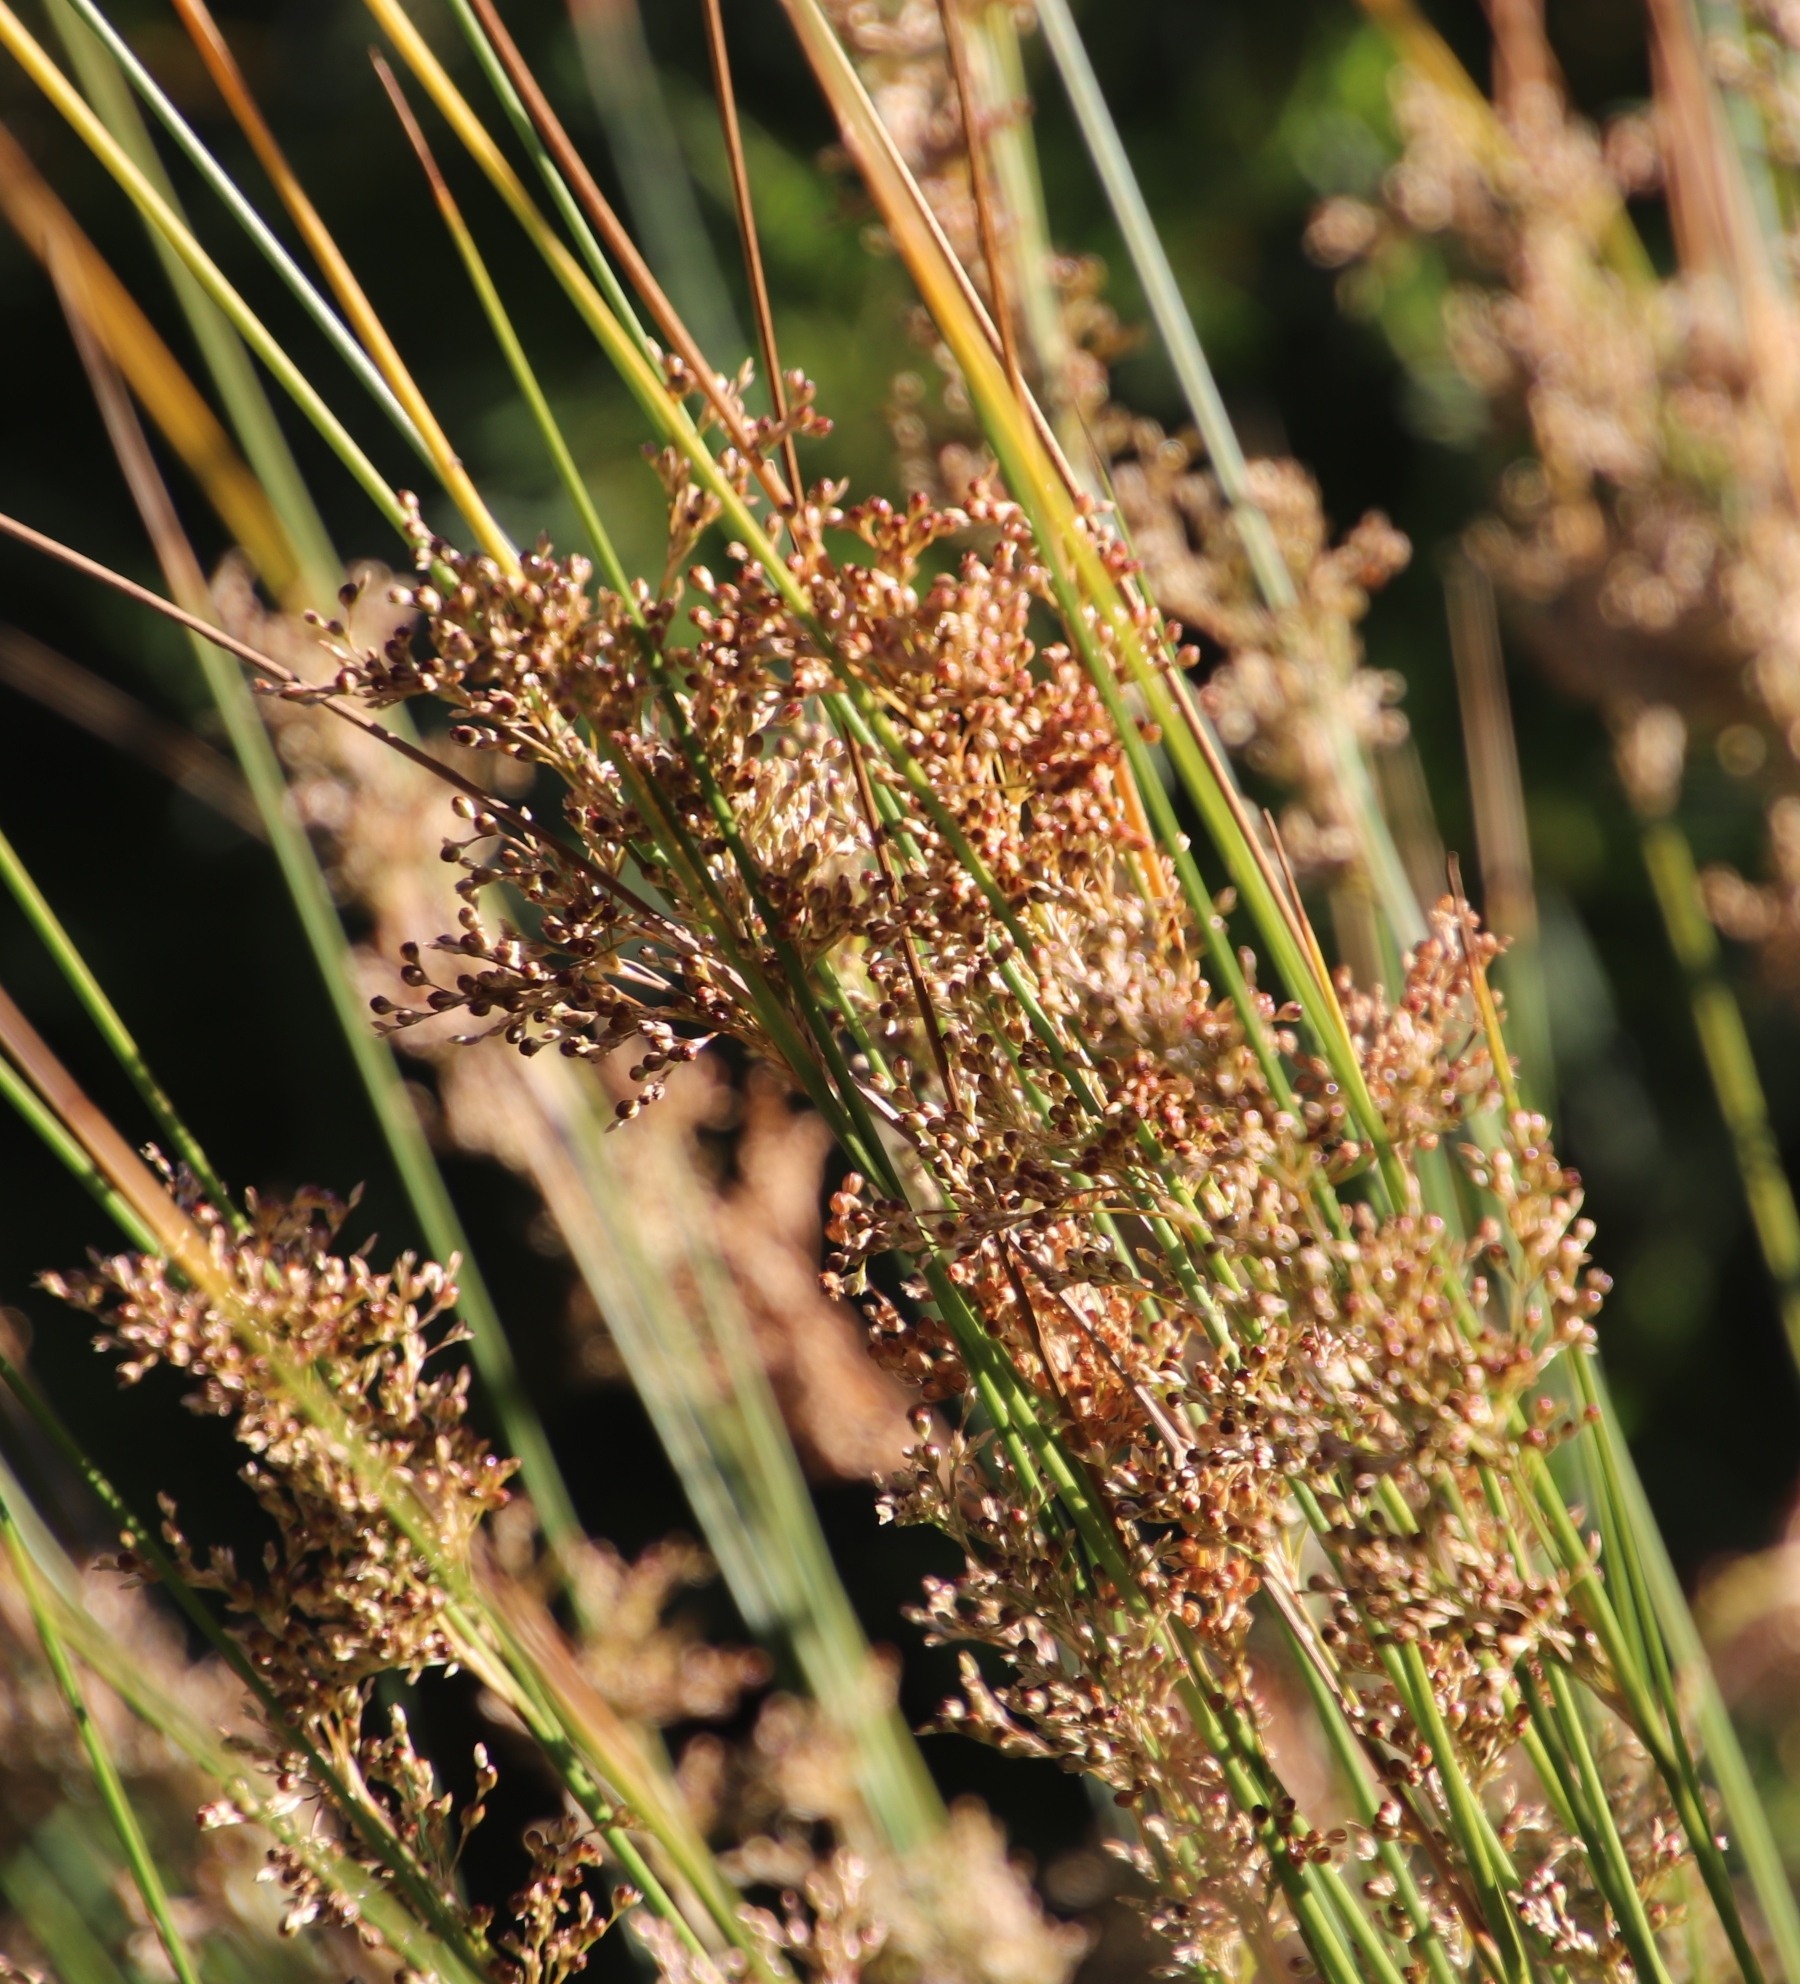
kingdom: Plantae
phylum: Tracheophyta
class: Liliopsida
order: Poales
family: Juncaceae
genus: Juncus
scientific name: Juncus effusus
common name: Soft rush
